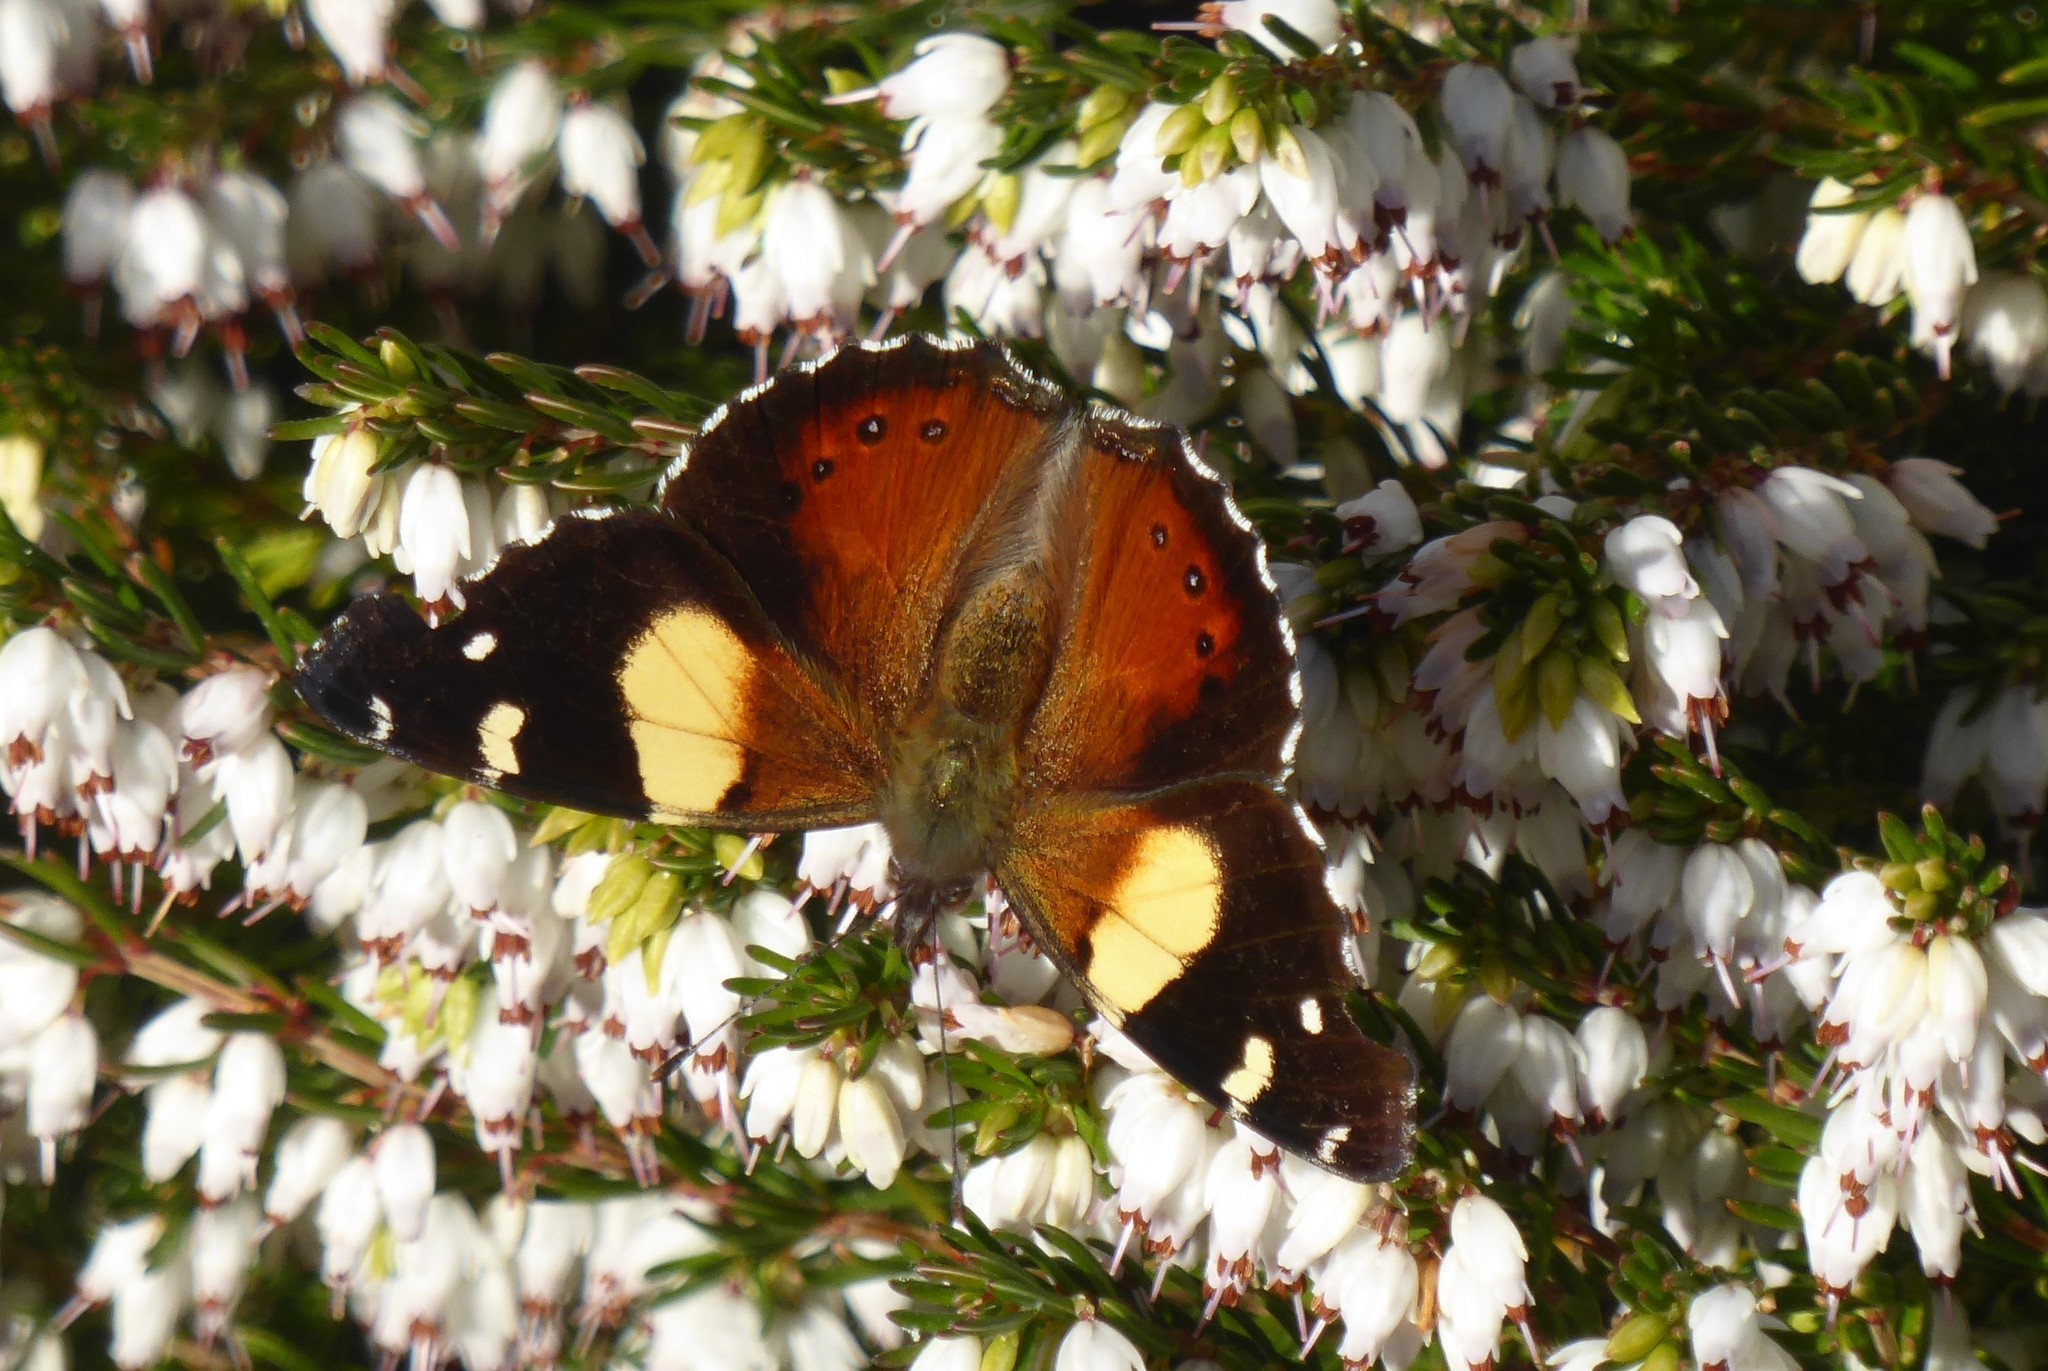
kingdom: Animalia
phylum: Arthropoda
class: Insecta
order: Lepidoptera
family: Nymphalidae
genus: Vanessa
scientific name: Vanessa itea
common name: Yellow admiral
